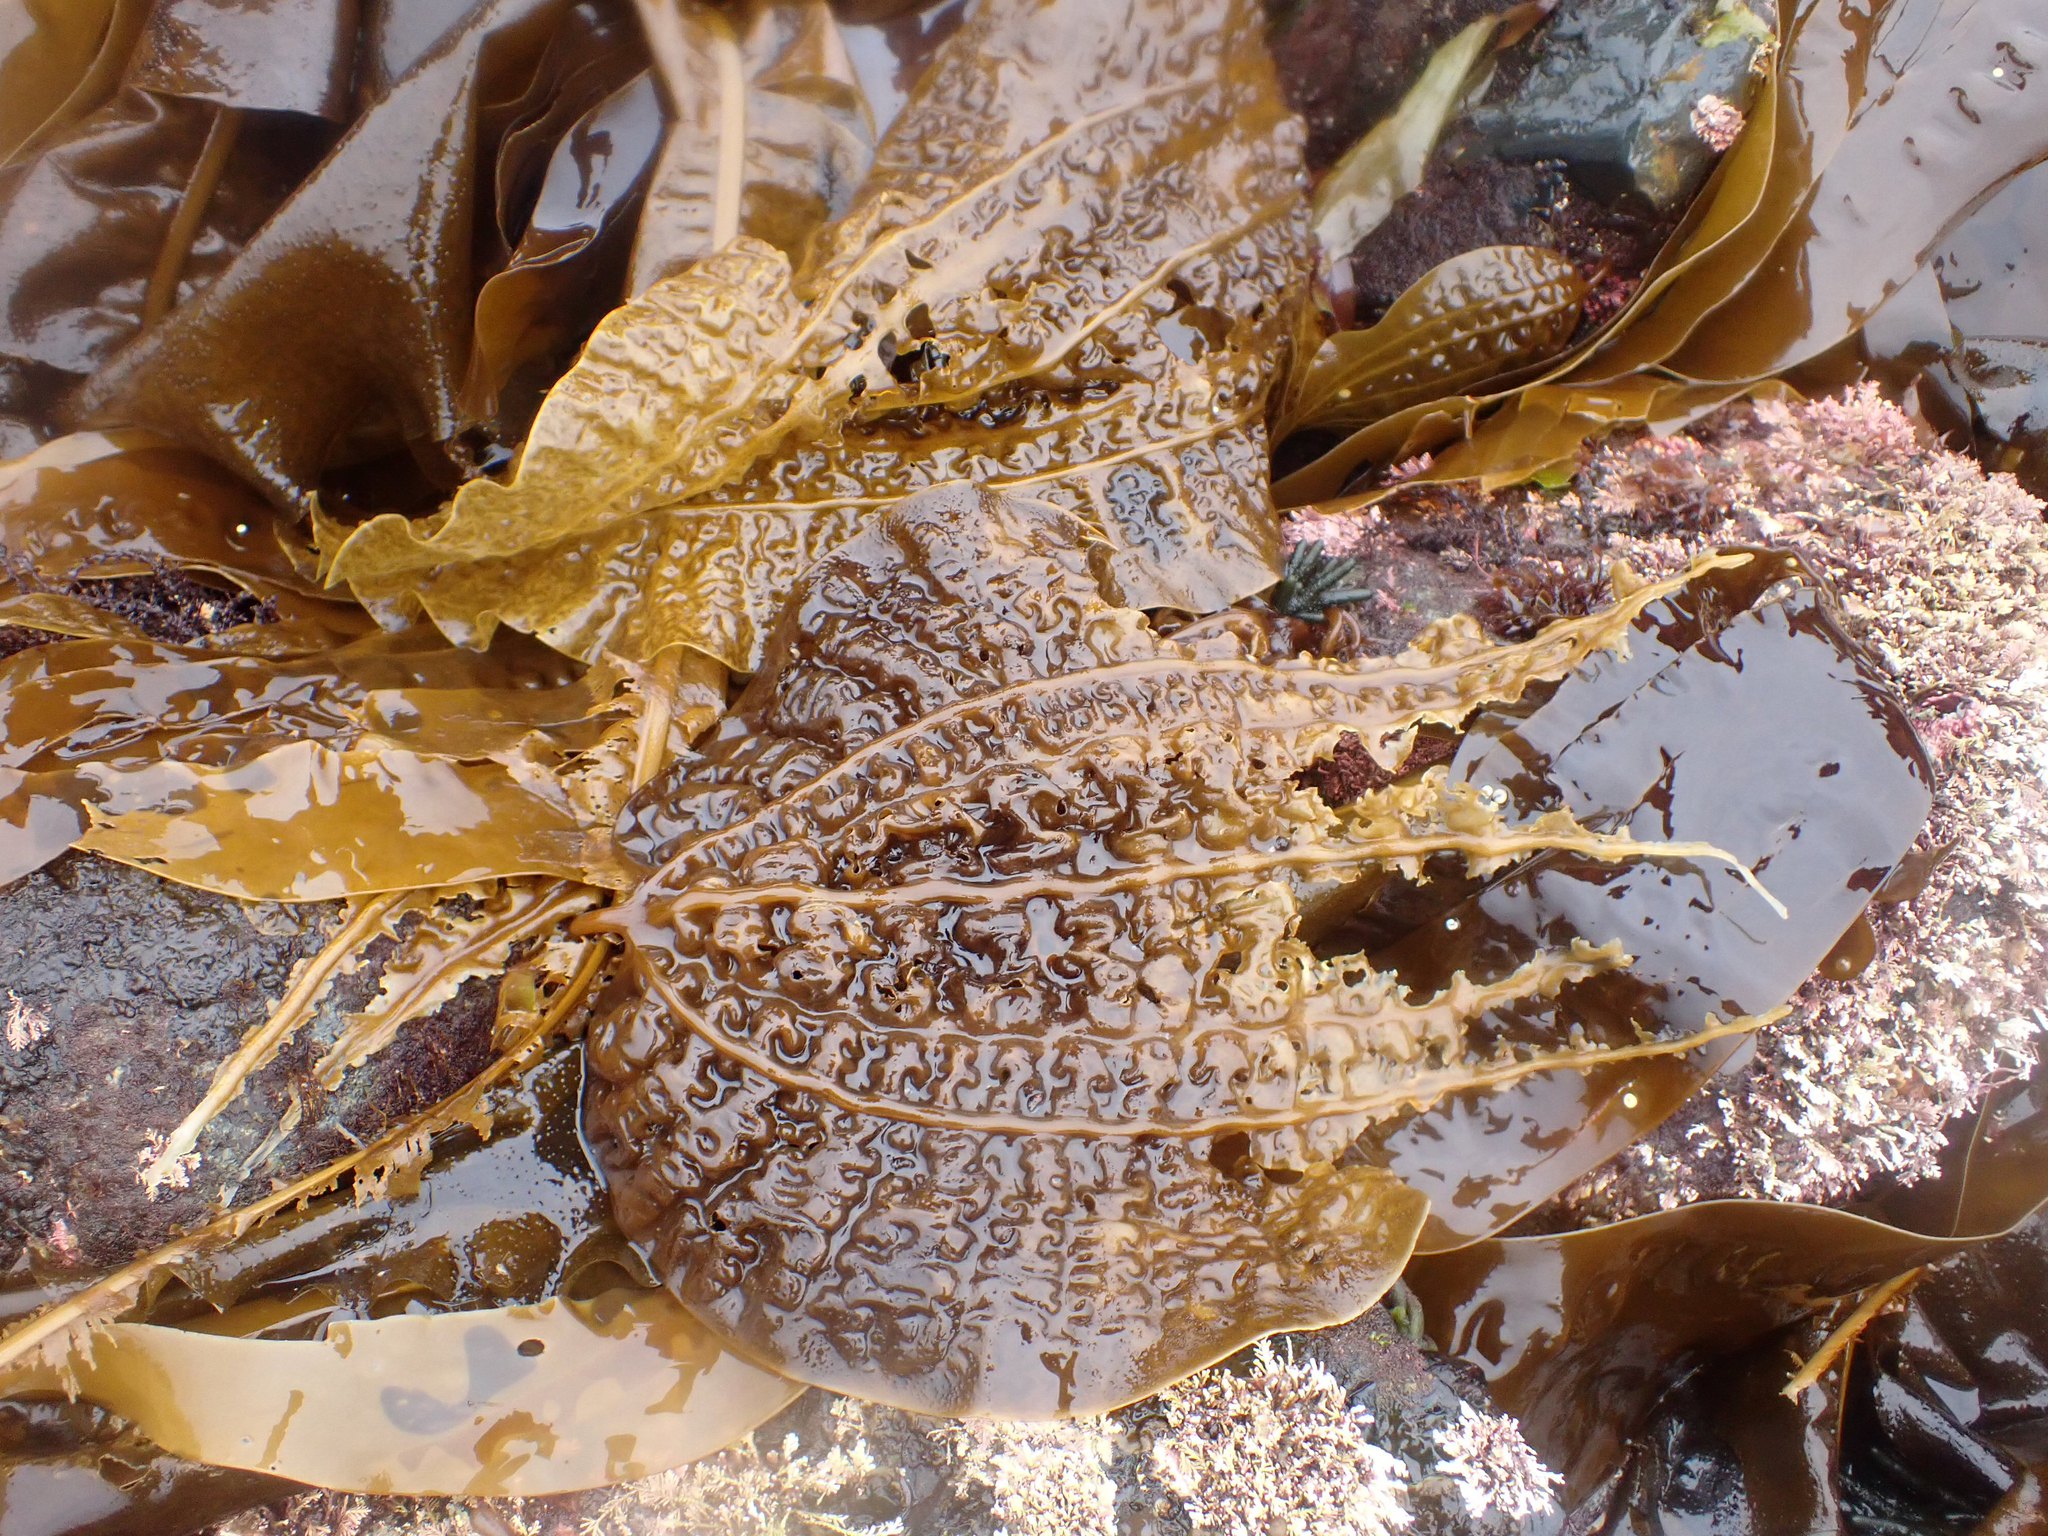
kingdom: Chromista
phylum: Ochrophyta
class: Phaeophyceae
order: Laminariales
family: Costariaceae
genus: Costaria
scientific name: Costaria costata
